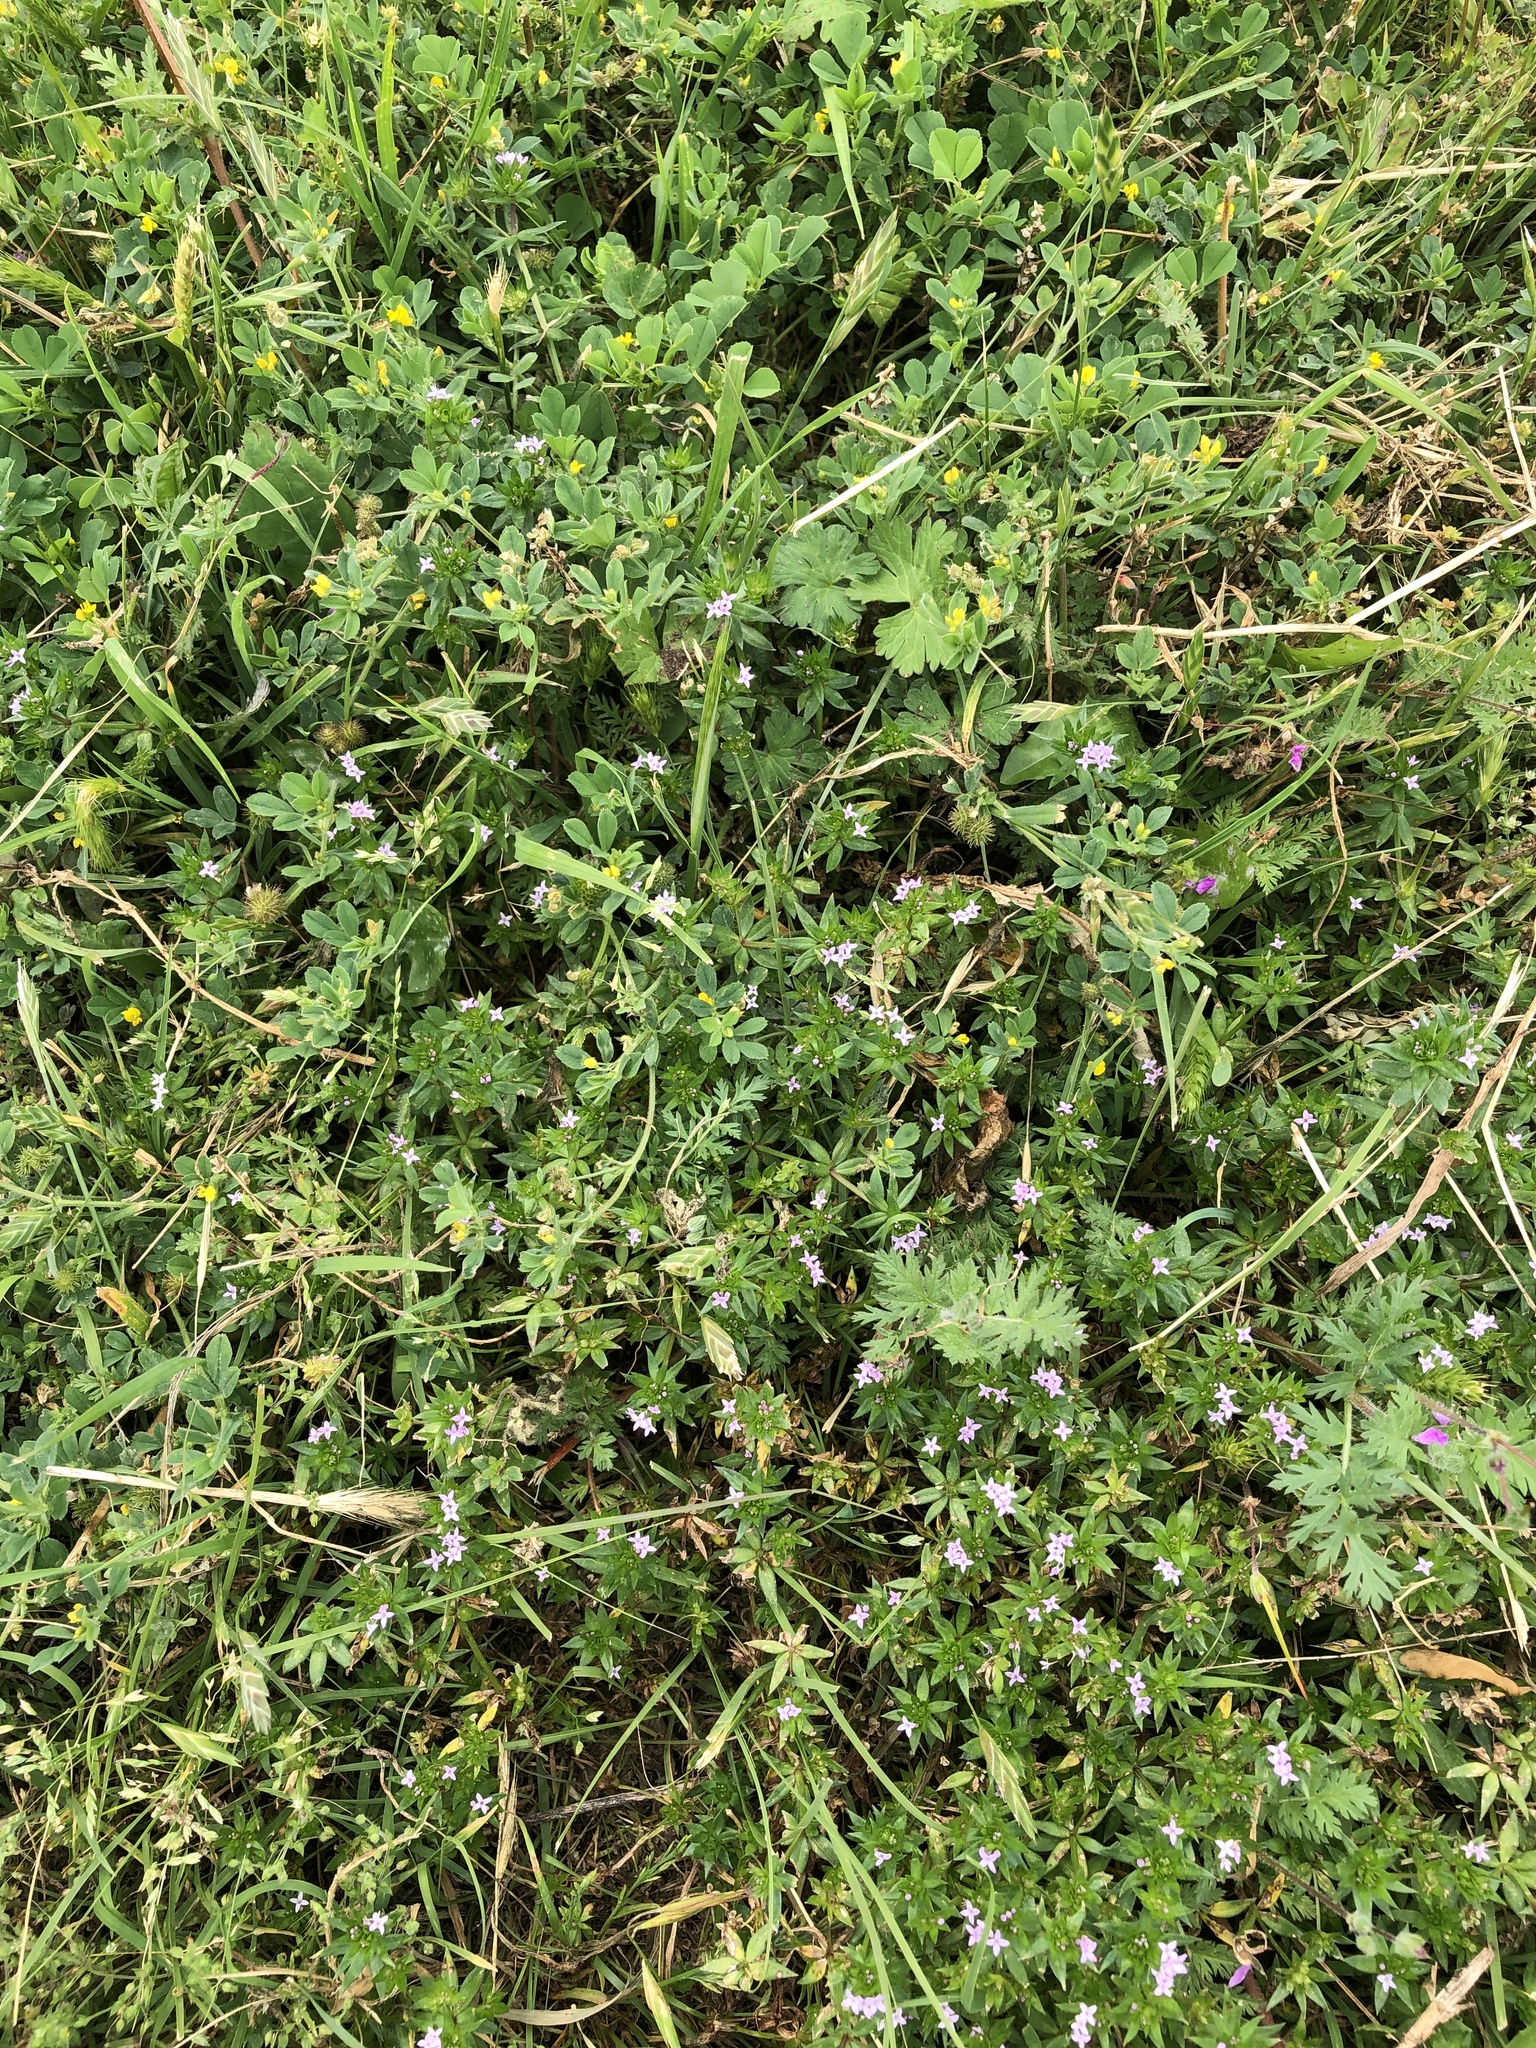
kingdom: Plantae
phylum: Tracheophyta
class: Magnoliopsida
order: Gentianales
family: Rubiaceae
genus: Sherardia
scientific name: Sherardia arvensis
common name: Field madder
